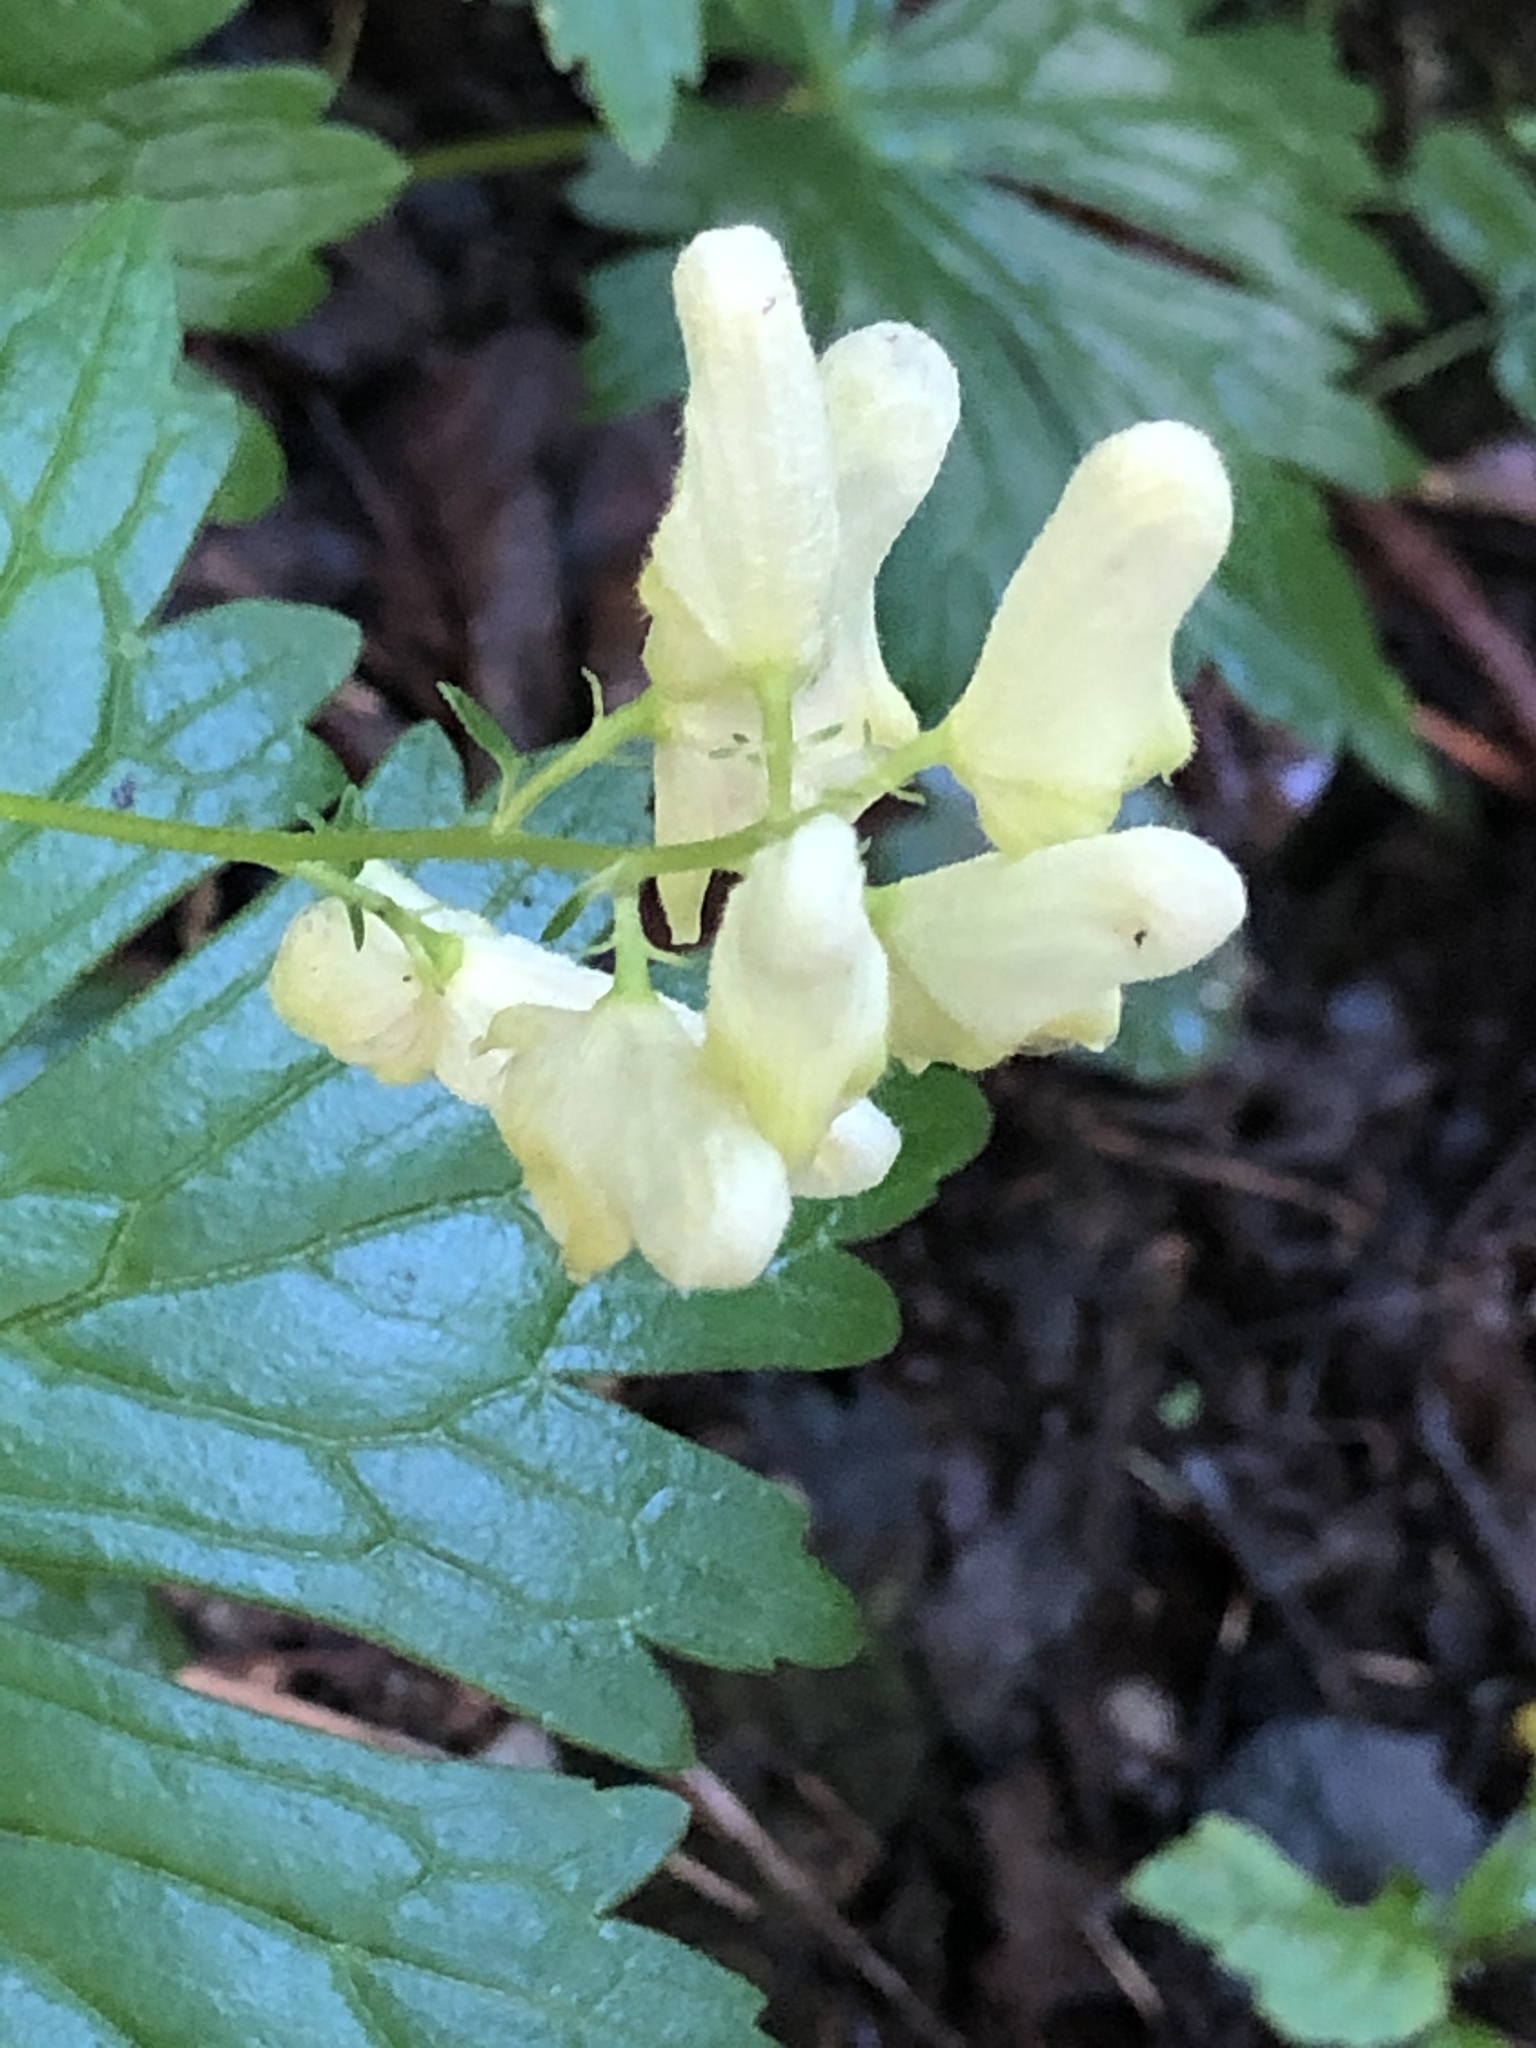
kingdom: Plantae
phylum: Tracheophyta
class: Magnoliopsida
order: Ranunculales
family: Ranunculaceae
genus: Aconitum
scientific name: Aconitum lycoctonum
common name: Wolf's-bane
